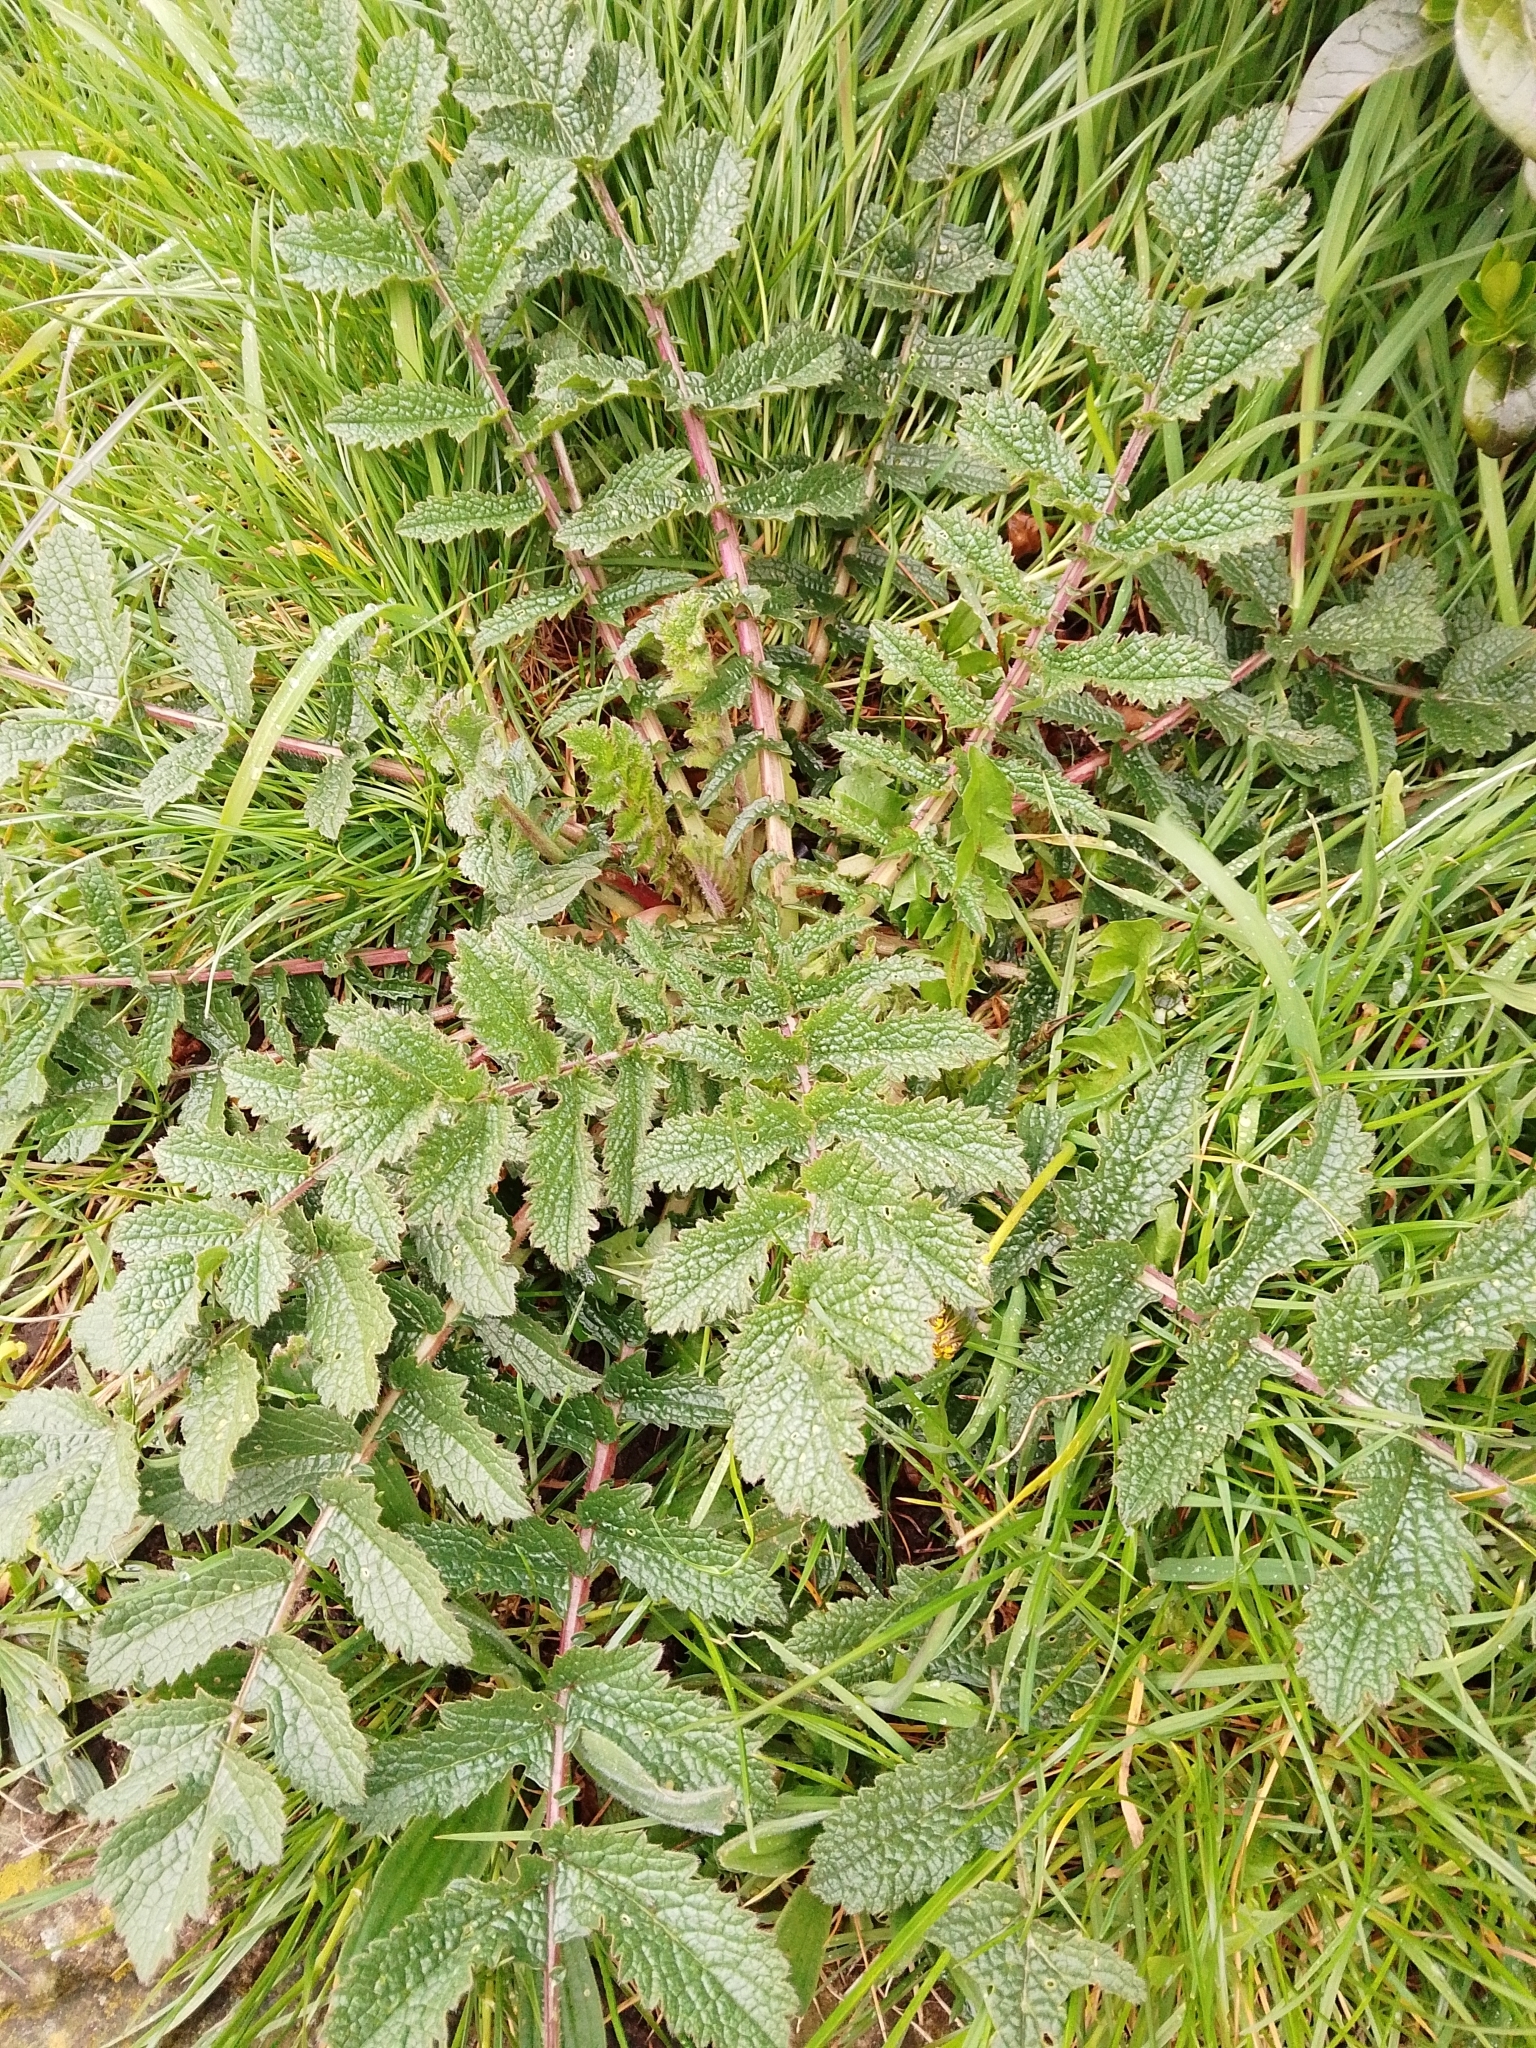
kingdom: Plantae
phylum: Tracheophyta
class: Magnoliopsida
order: Brassicales
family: Brassicaceae
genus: Raphanus
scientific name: Raphanus raphanistrum
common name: Wild radish
